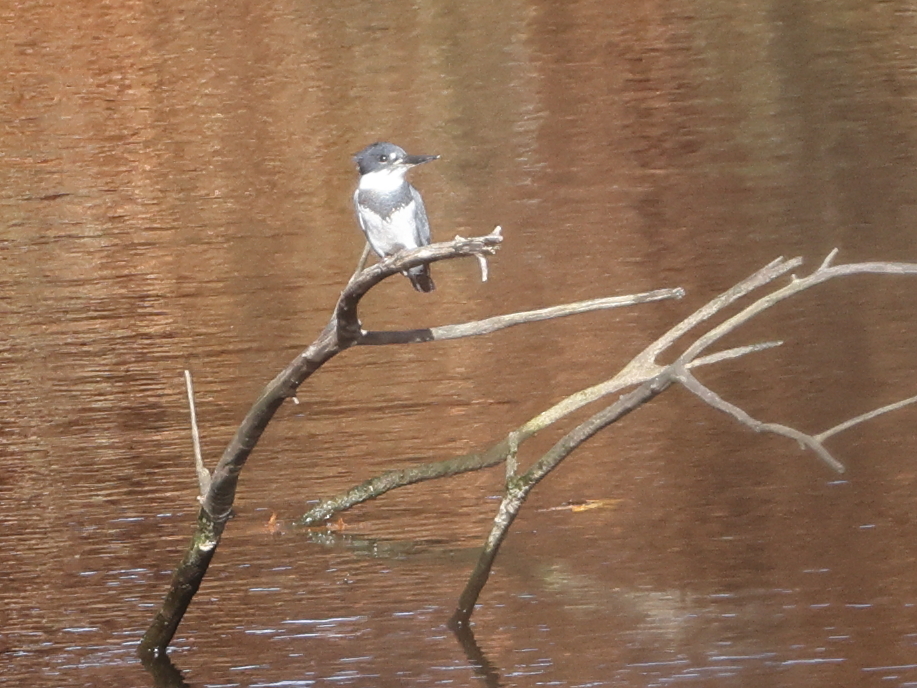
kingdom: Animalia
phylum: Chordata
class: Aves
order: Coraciiformes
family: Alcedinidae
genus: Megaceryle
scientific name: Megaceryle alcyon
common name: Belted kingfisher
